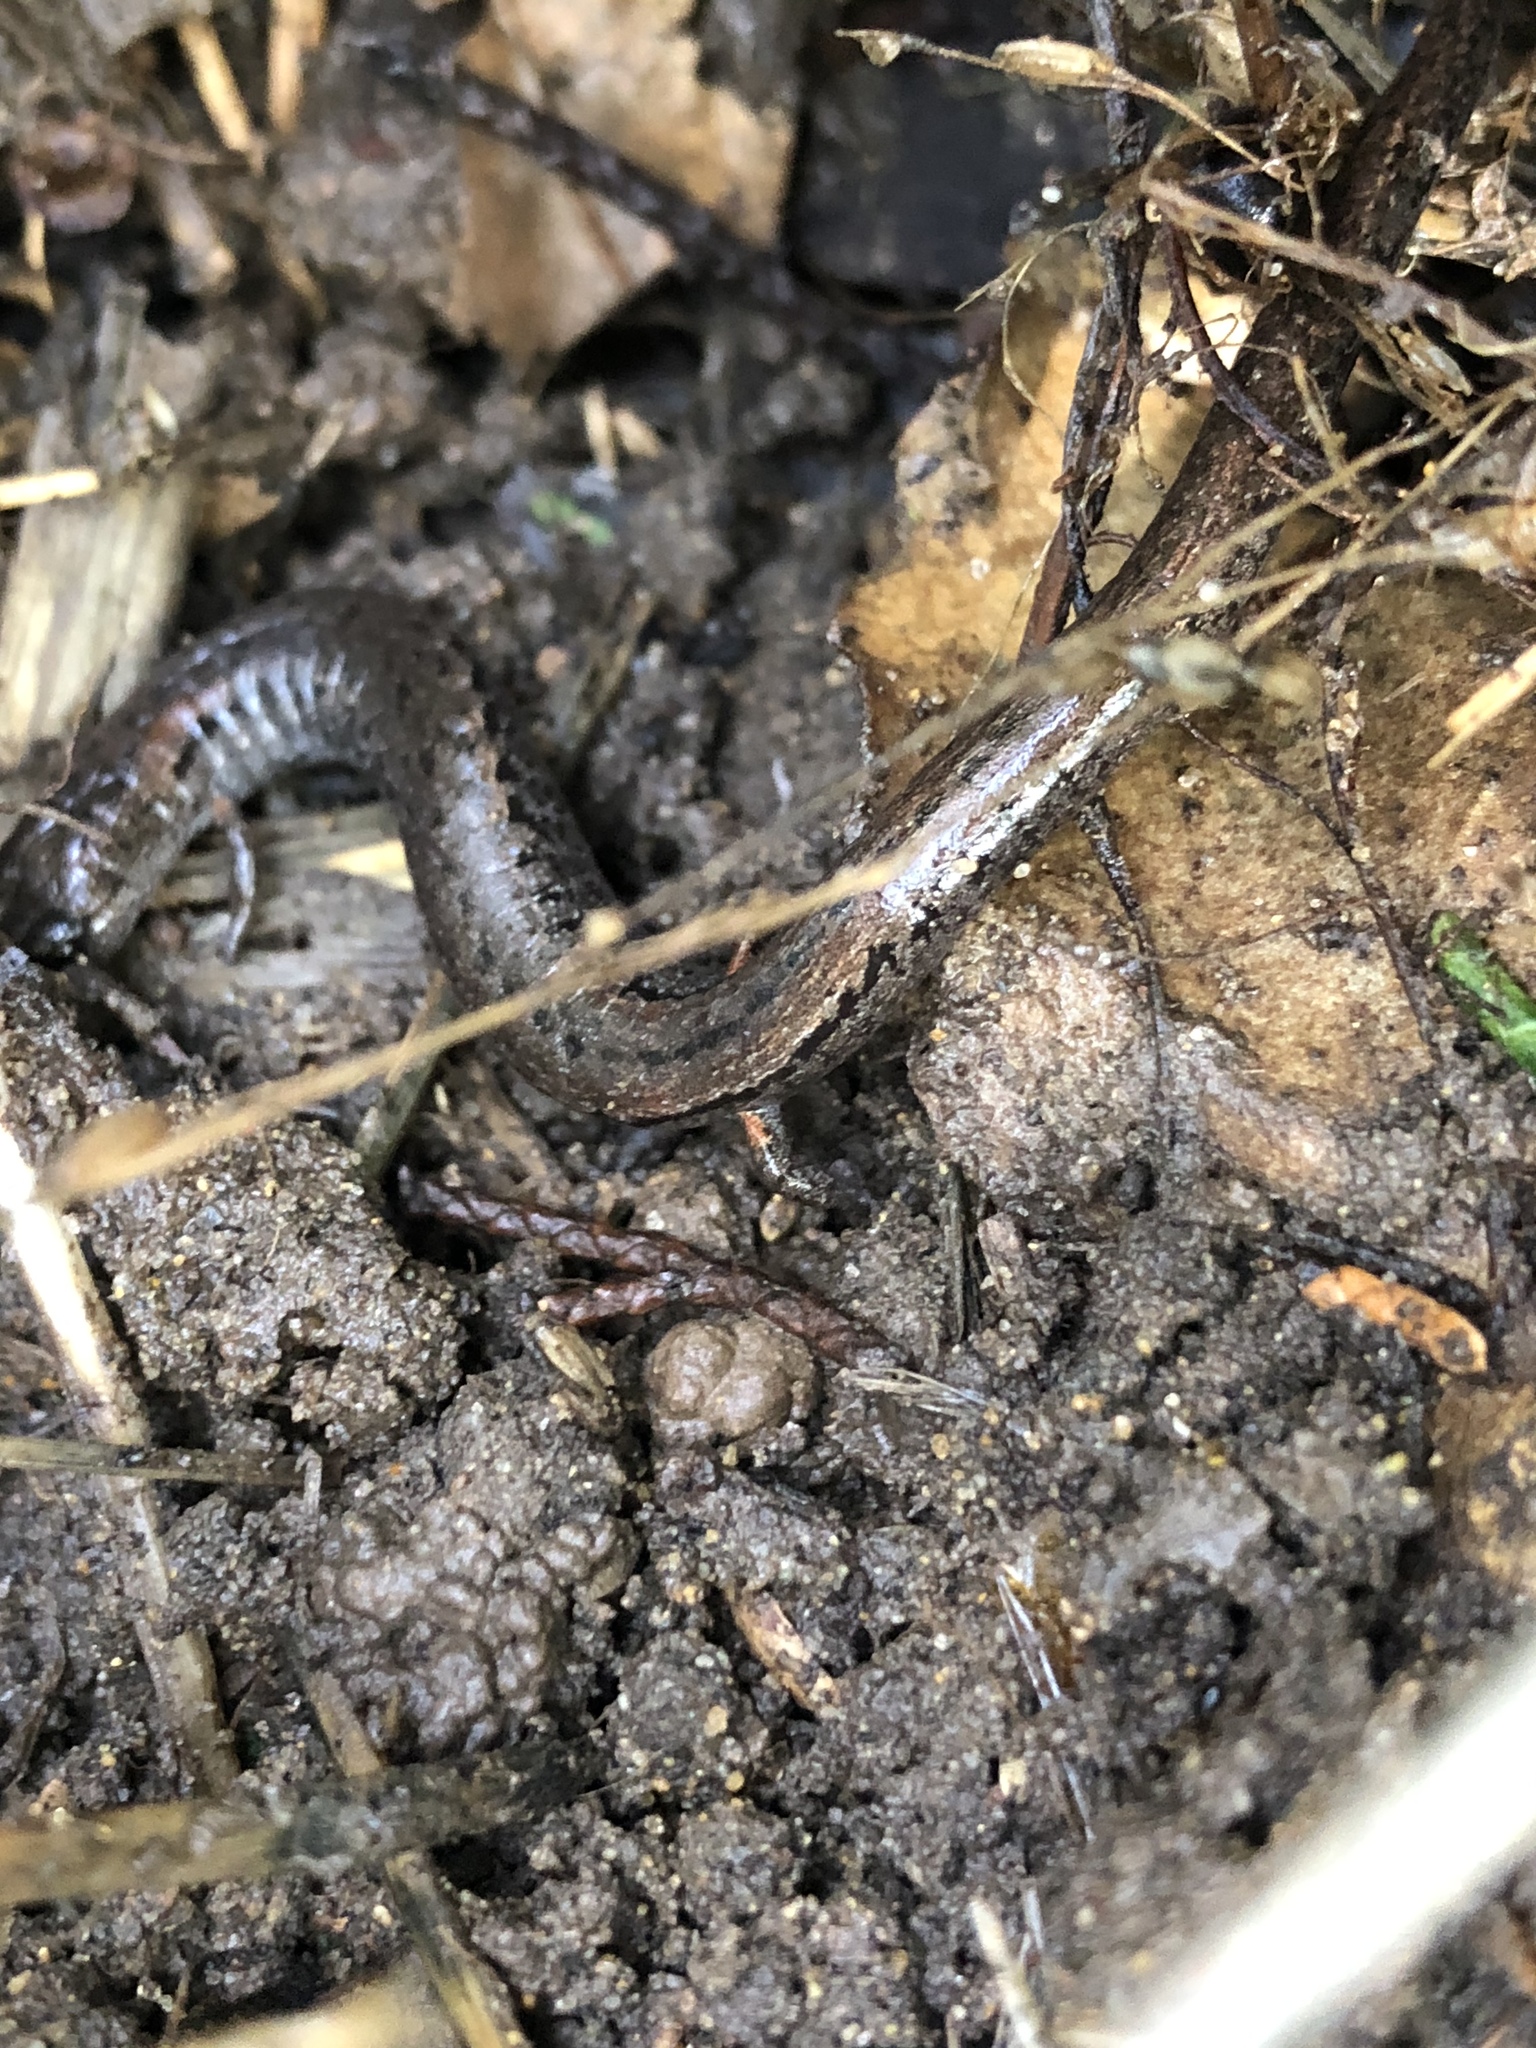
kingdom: Animalia
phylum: Chordata
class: Amphibia
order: Caudata
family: Plethodontidae
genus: Batrachoseps
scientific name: Batrachoseps attenuatus
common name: California slender salamander
